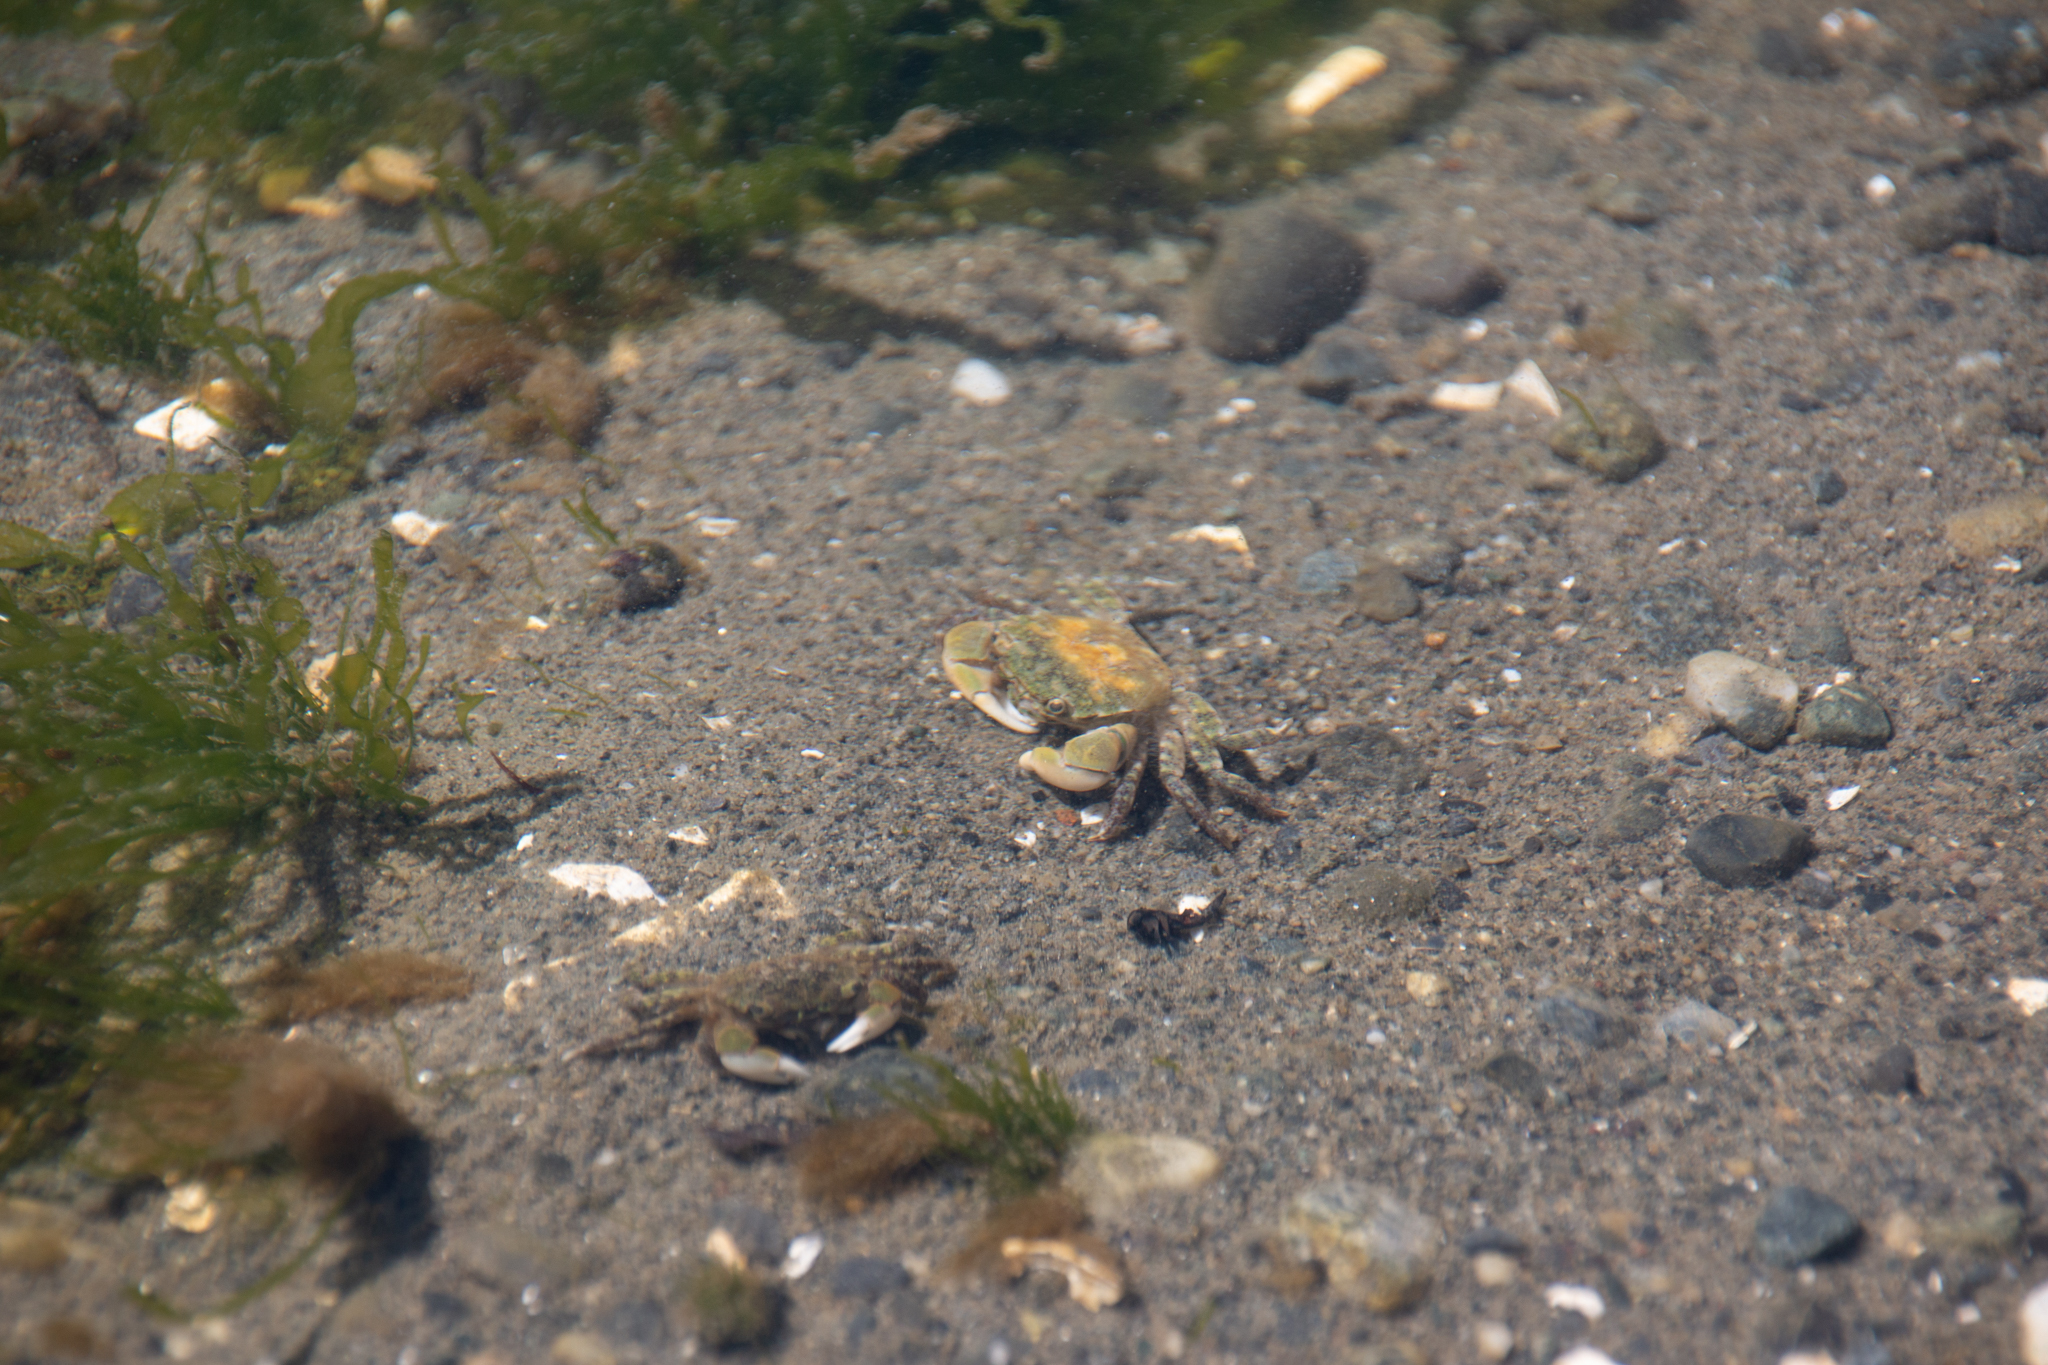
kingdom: Animalia
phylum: Arthropoda
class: Malacostraca
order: Decapoda
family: Varunidae
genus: Hemigrapsus
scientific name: Hemigrapsus oregonensis
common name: Yellow shore crab
